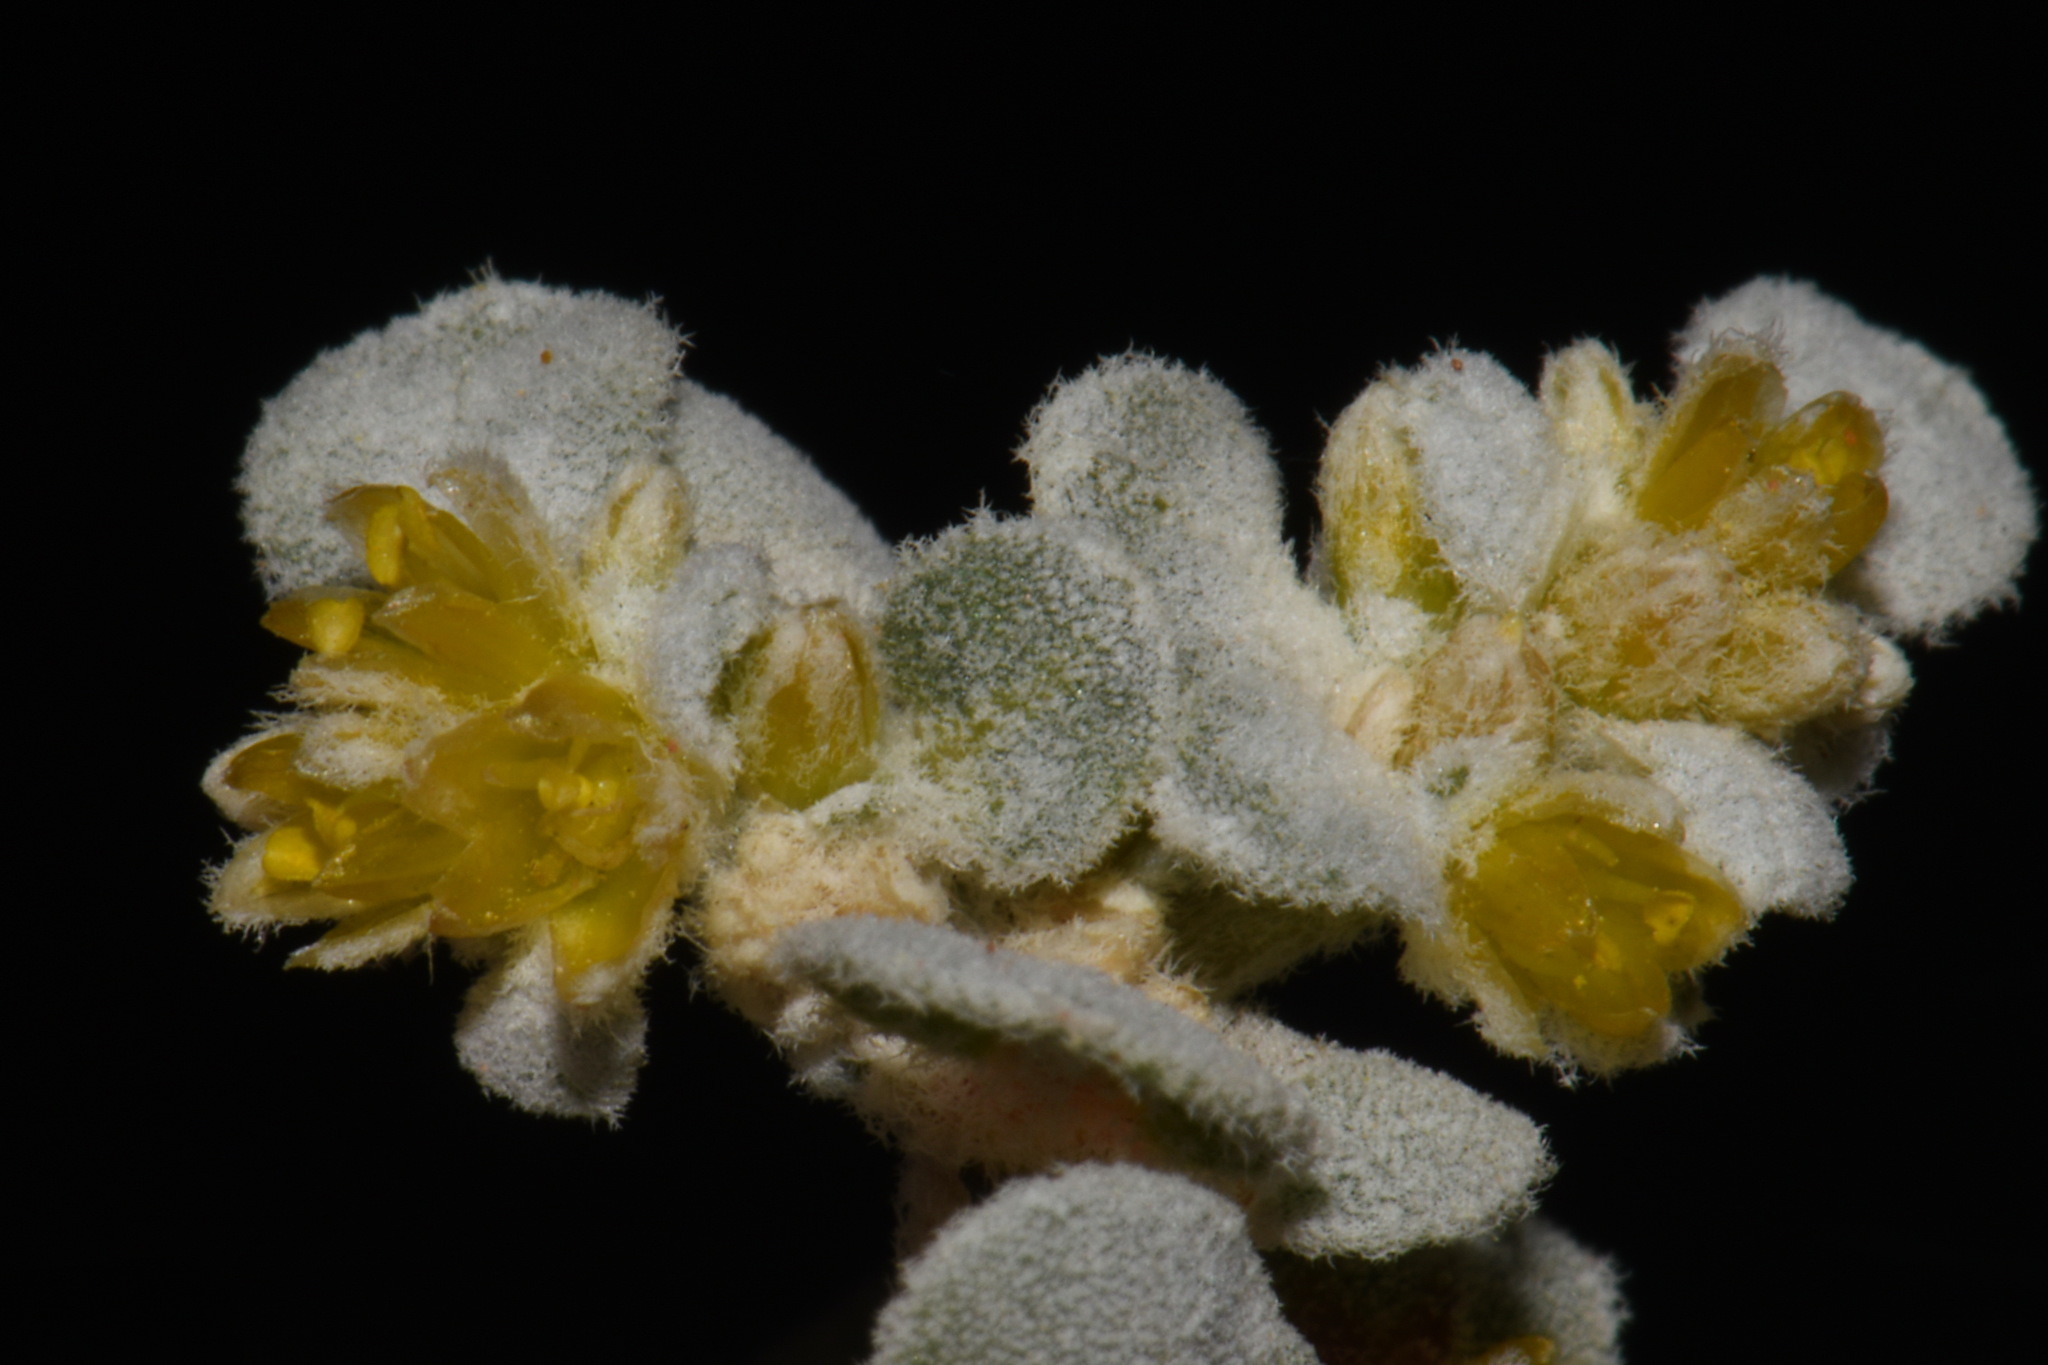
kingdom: Plantae
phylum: Tracheophyta
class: Magnoliopsida
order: Caryophyllales
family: Amaranthaceae
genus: Tidestromia
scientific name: Tidestromia lanuginosa
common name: Woolly tidestromia
